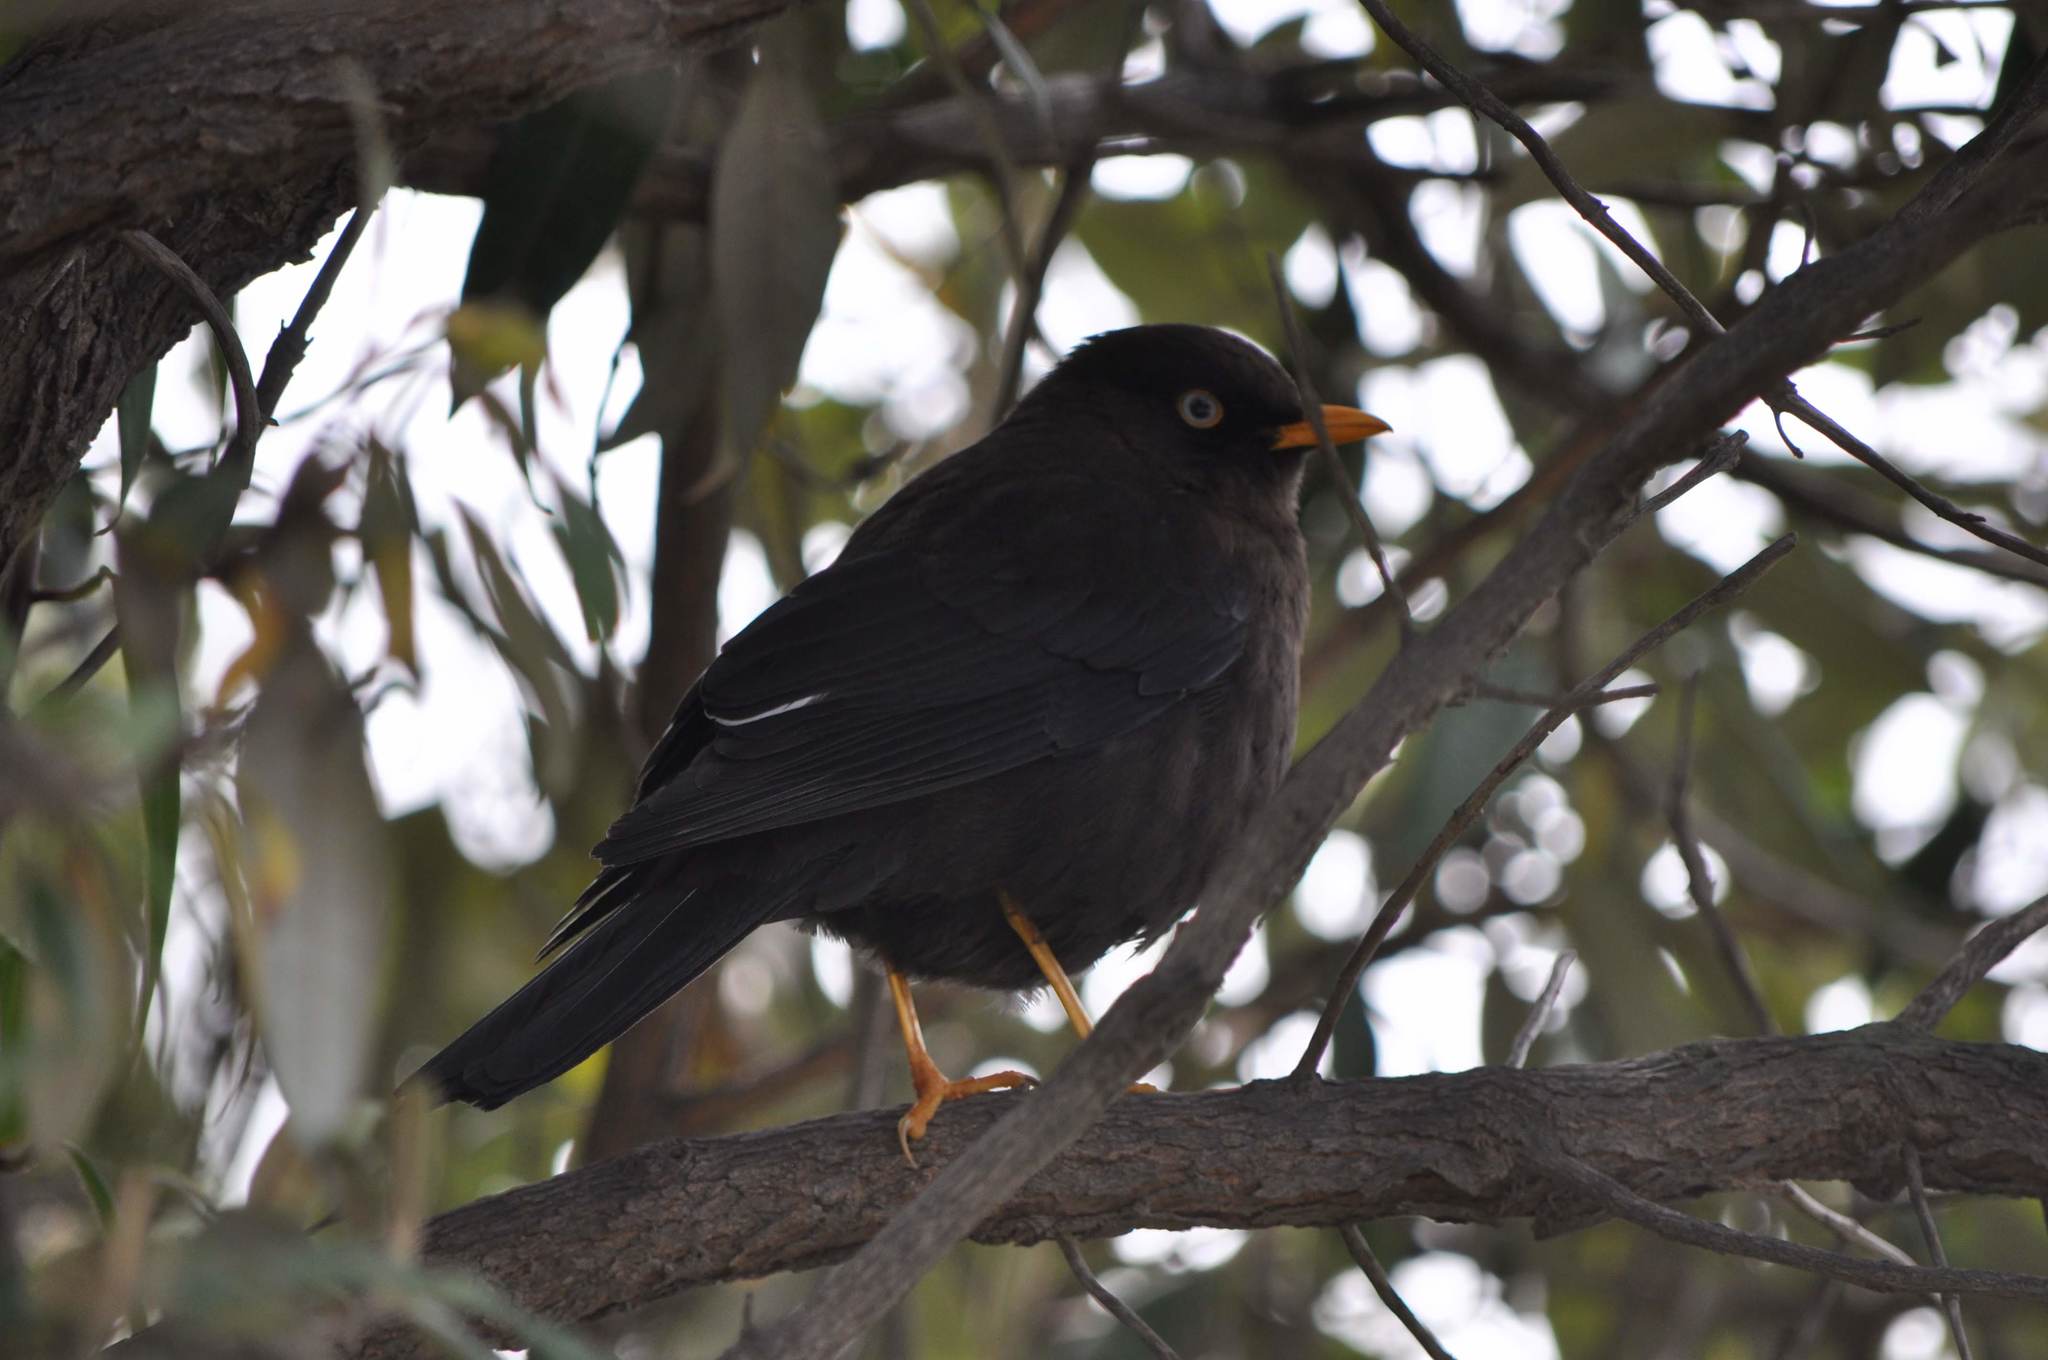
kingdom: Animalia
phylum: Chordata
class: Aves
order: Passeriformes
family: Turdidae
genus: Turdus
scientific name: Turdus nigrescens
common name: Sooty thrush
